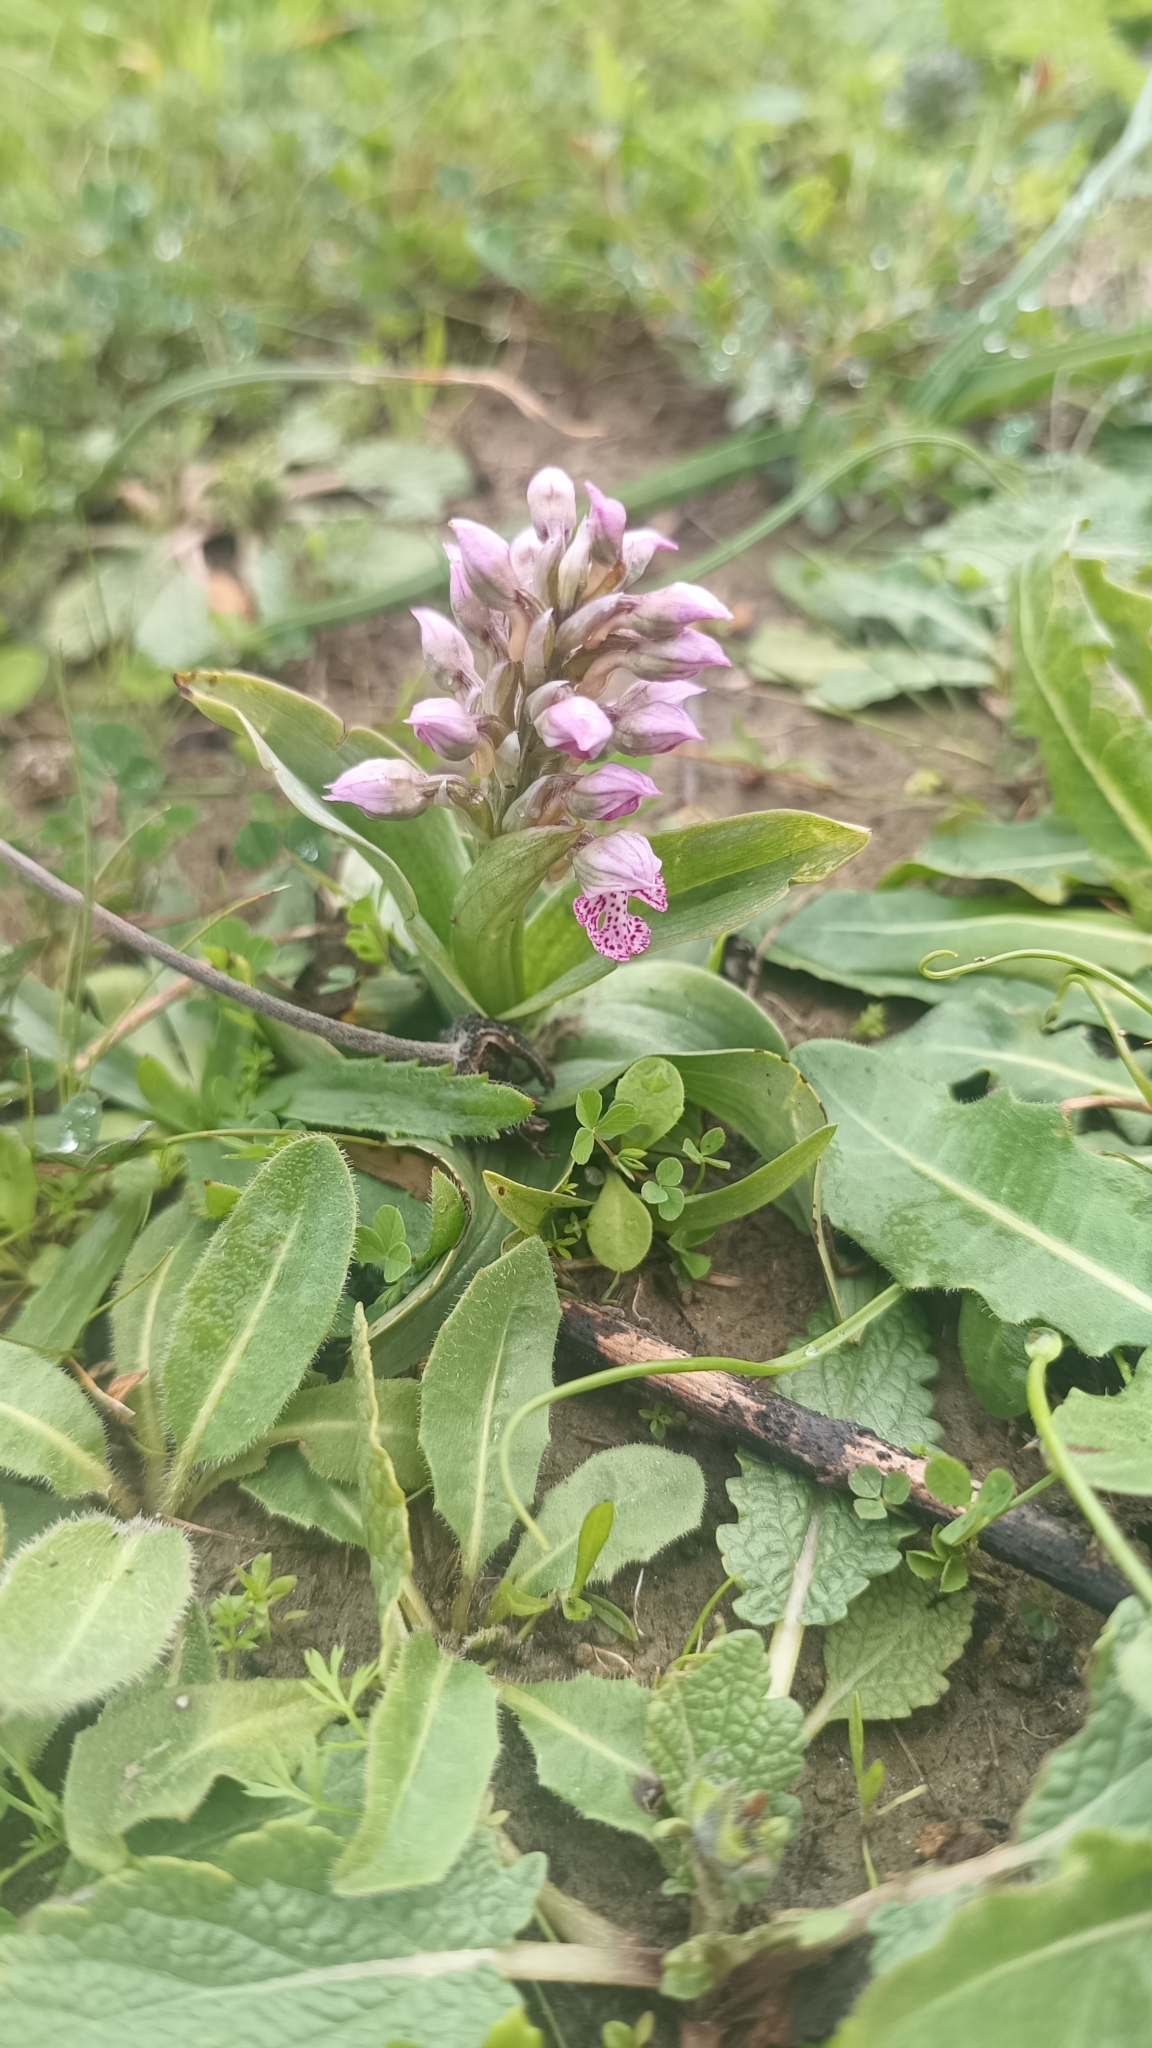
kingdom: Plantae
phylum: Tracheophyta
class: Liliopsida
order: Asparagales
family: Orchidaceae
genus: Neotinea
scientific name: Neotinea lactea
